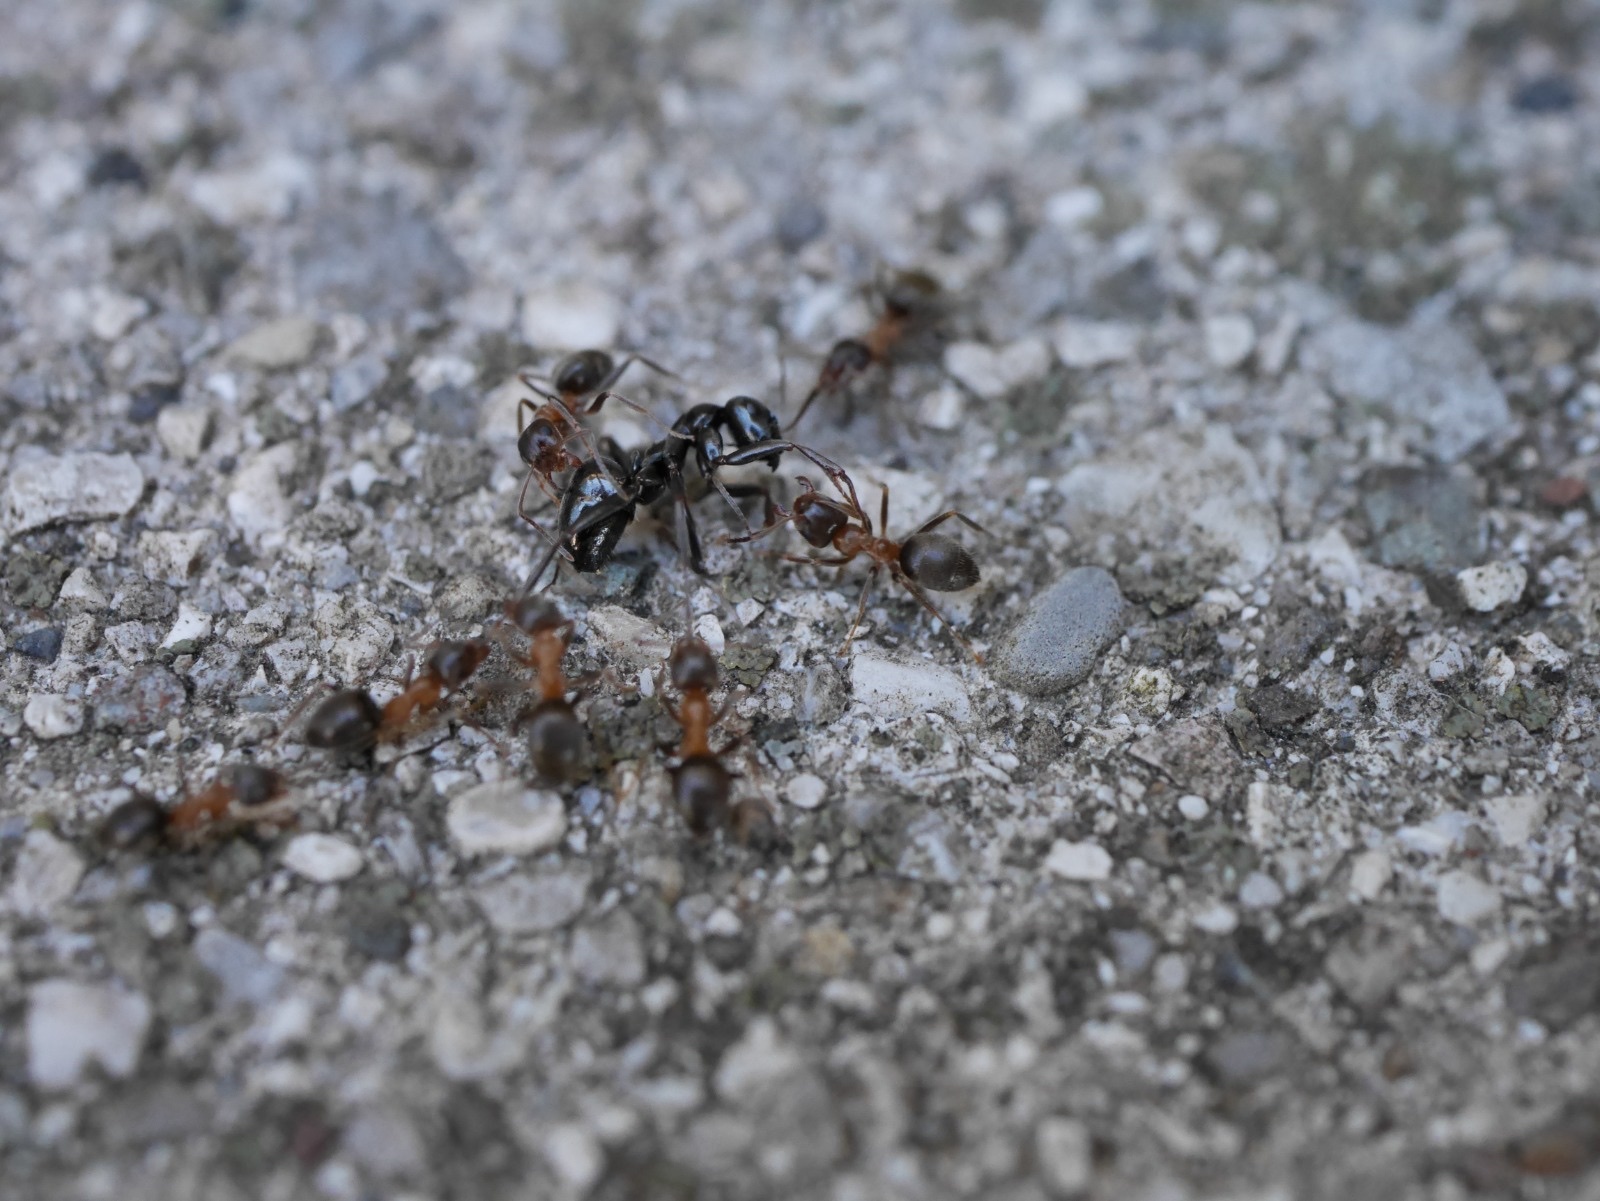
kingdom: Animalia
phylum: Arthropoda
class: Insecta
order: Hymenoptera
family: Formicidae
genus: Lasius
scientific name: Lasius emarginatus
